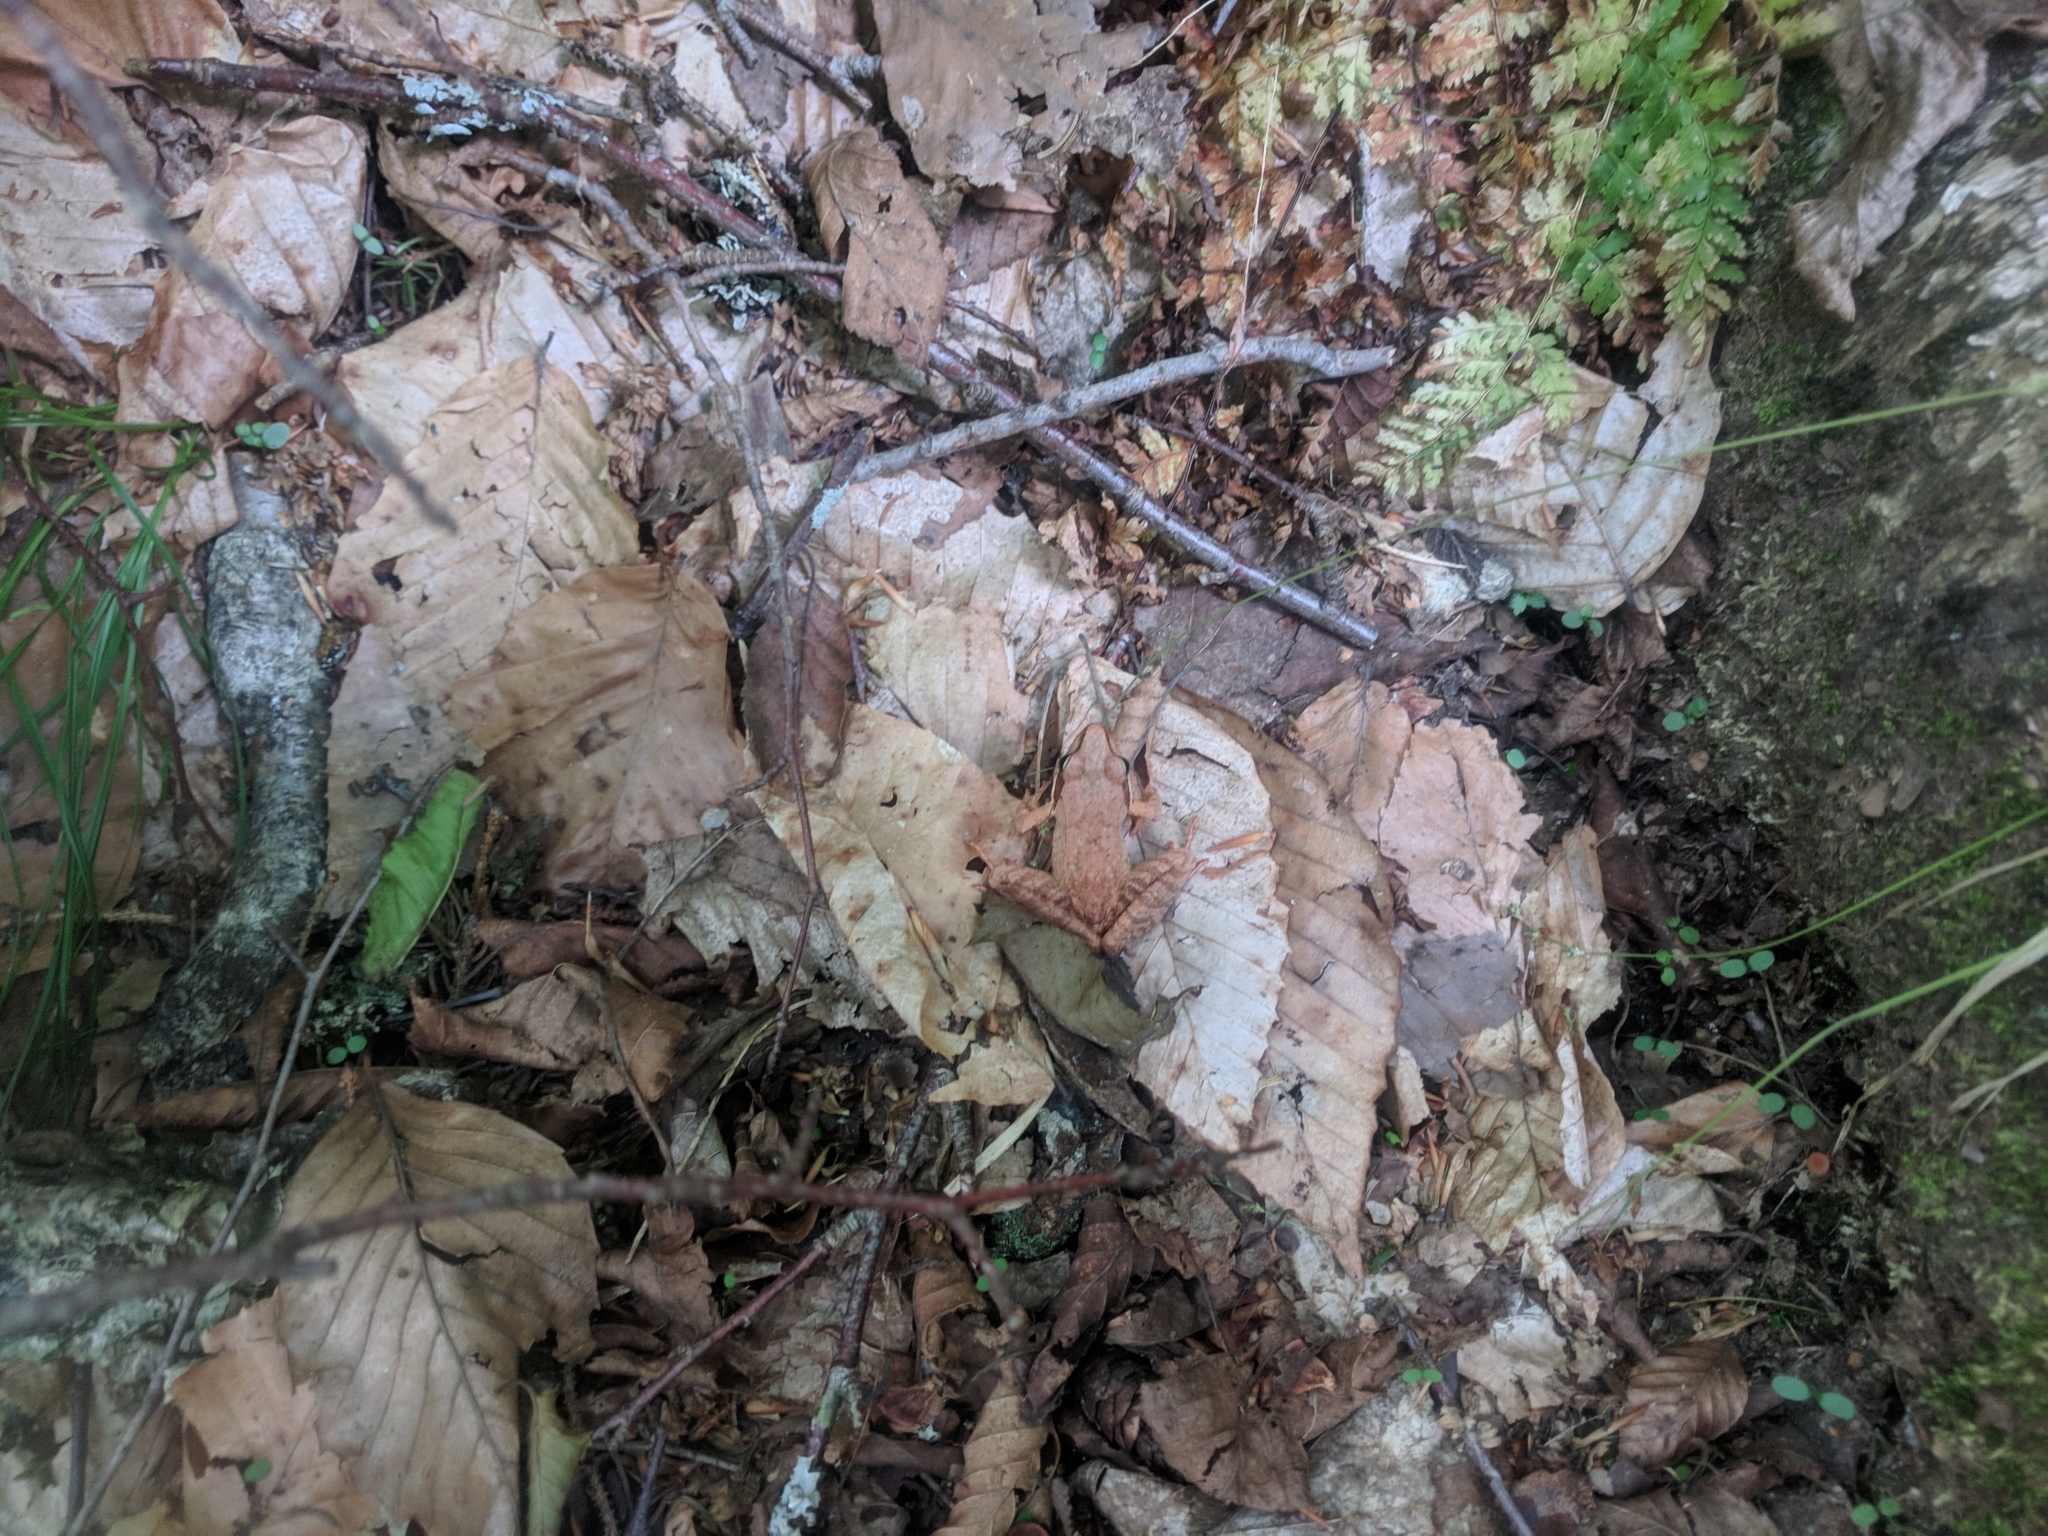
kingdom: Animalia
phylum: Chordata
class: Amphibia
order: Anura
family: Ranidae
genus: Lithobates
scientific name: Lithobates sylvaticus
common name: Wood frog
